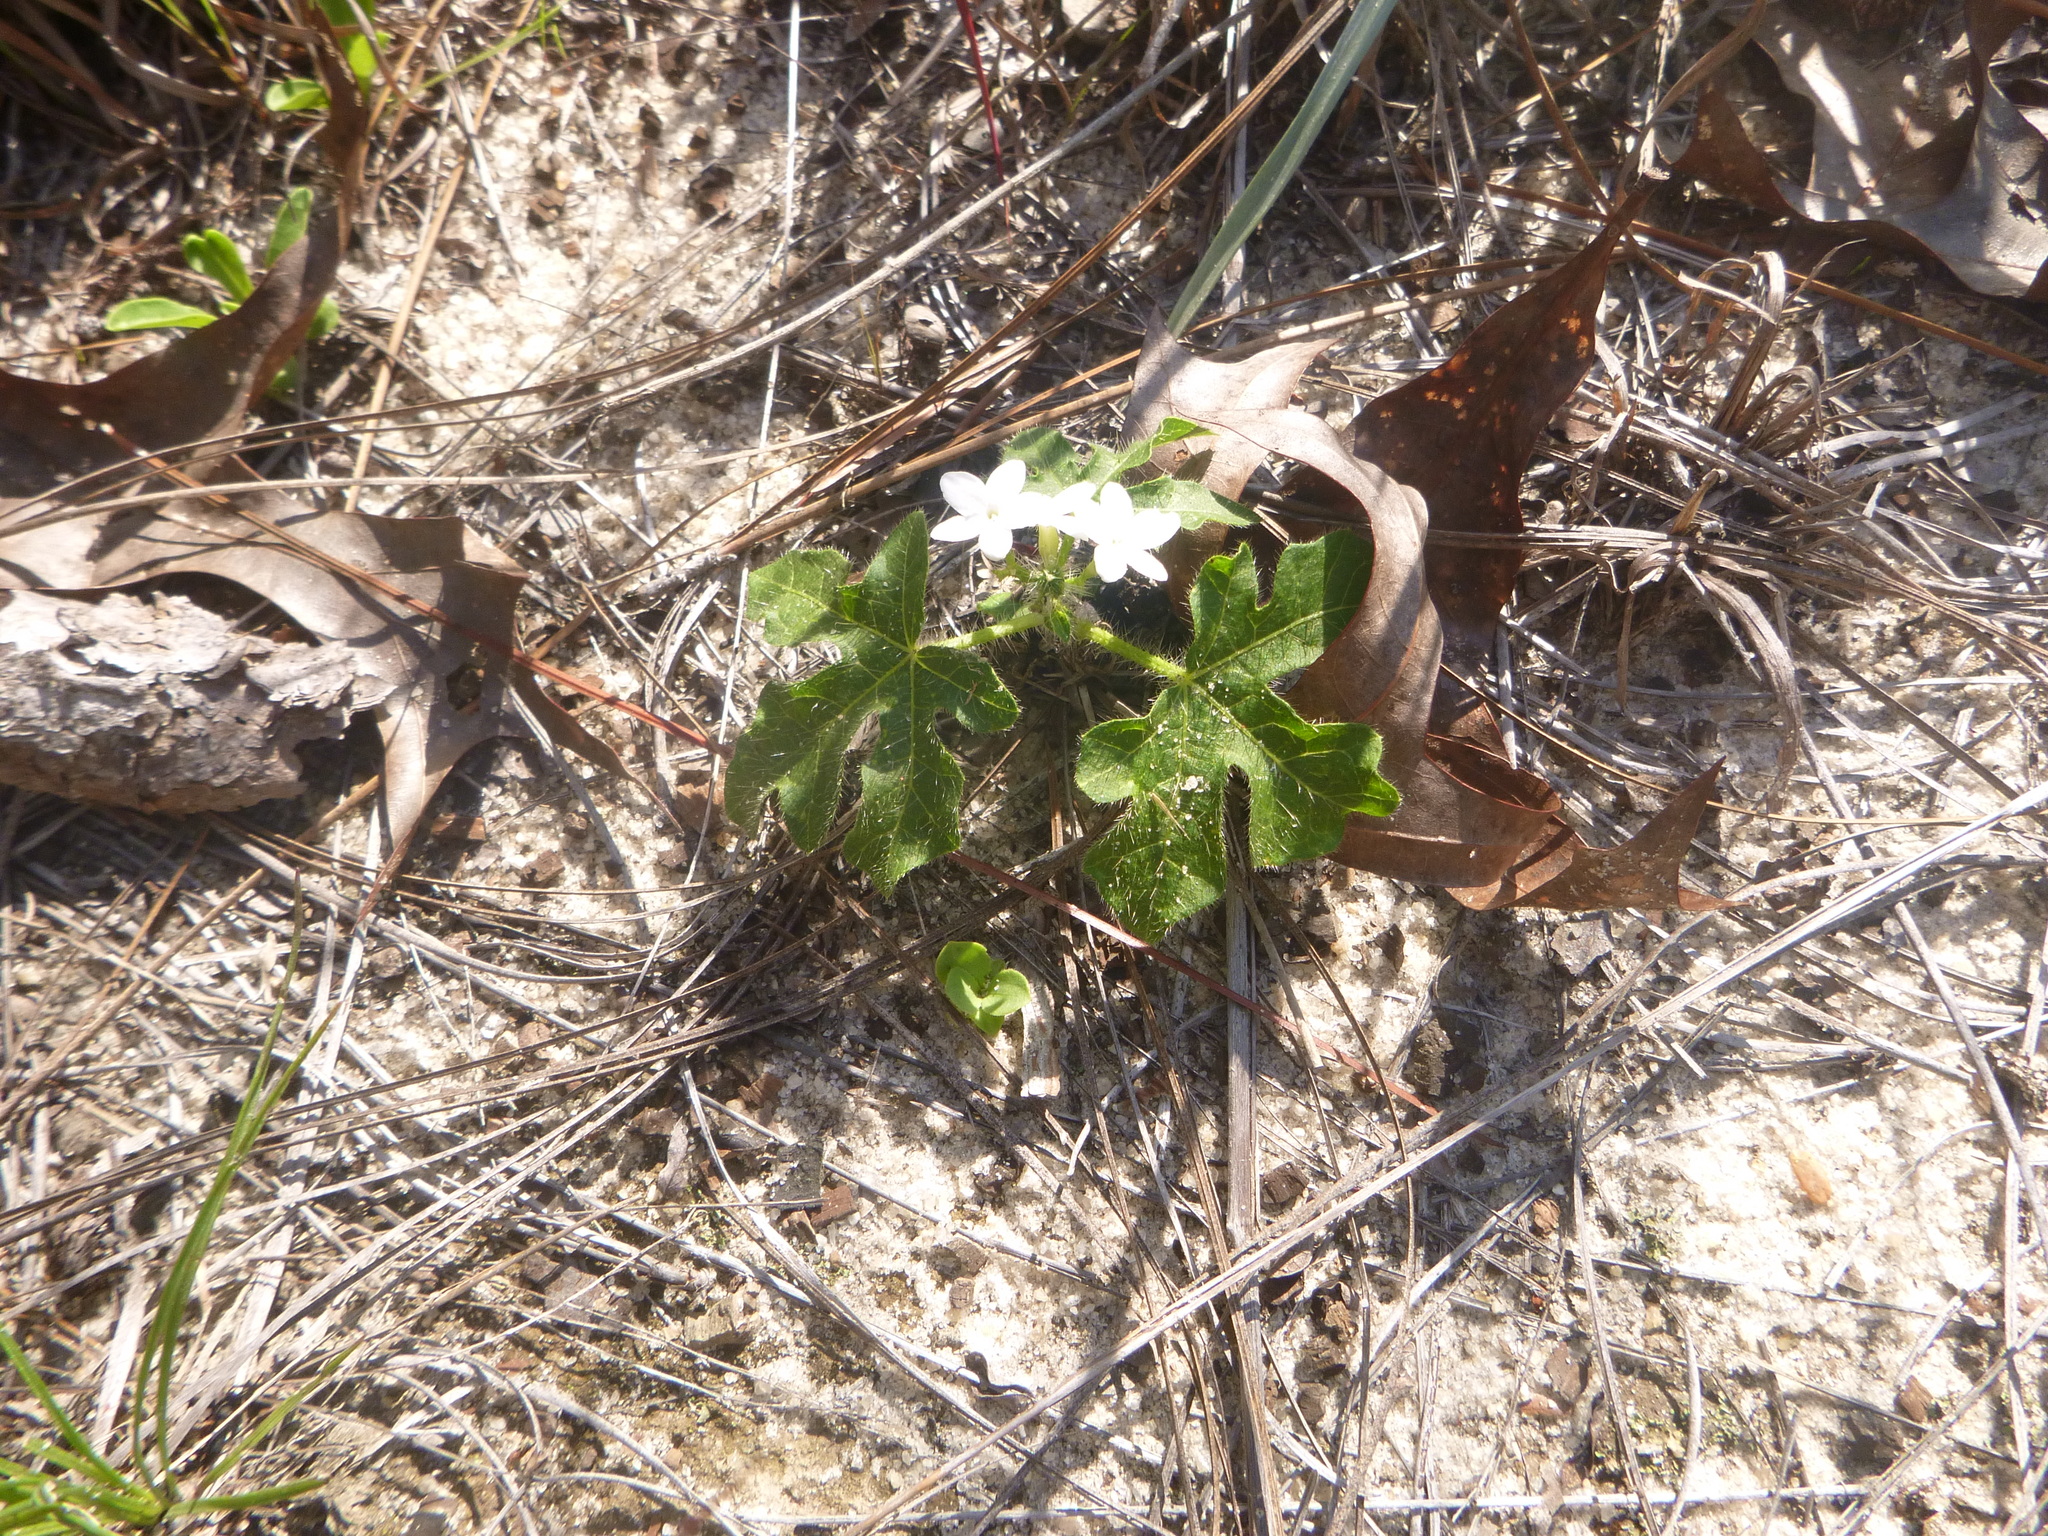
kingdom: Plantae
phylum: Tracheophyta
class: Magnoliopsida
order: Malpighiales
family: Euphorbiaceae
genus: Cnidoscolus
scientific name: Cnidoscolus stimulosus
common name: Bull-nettle
